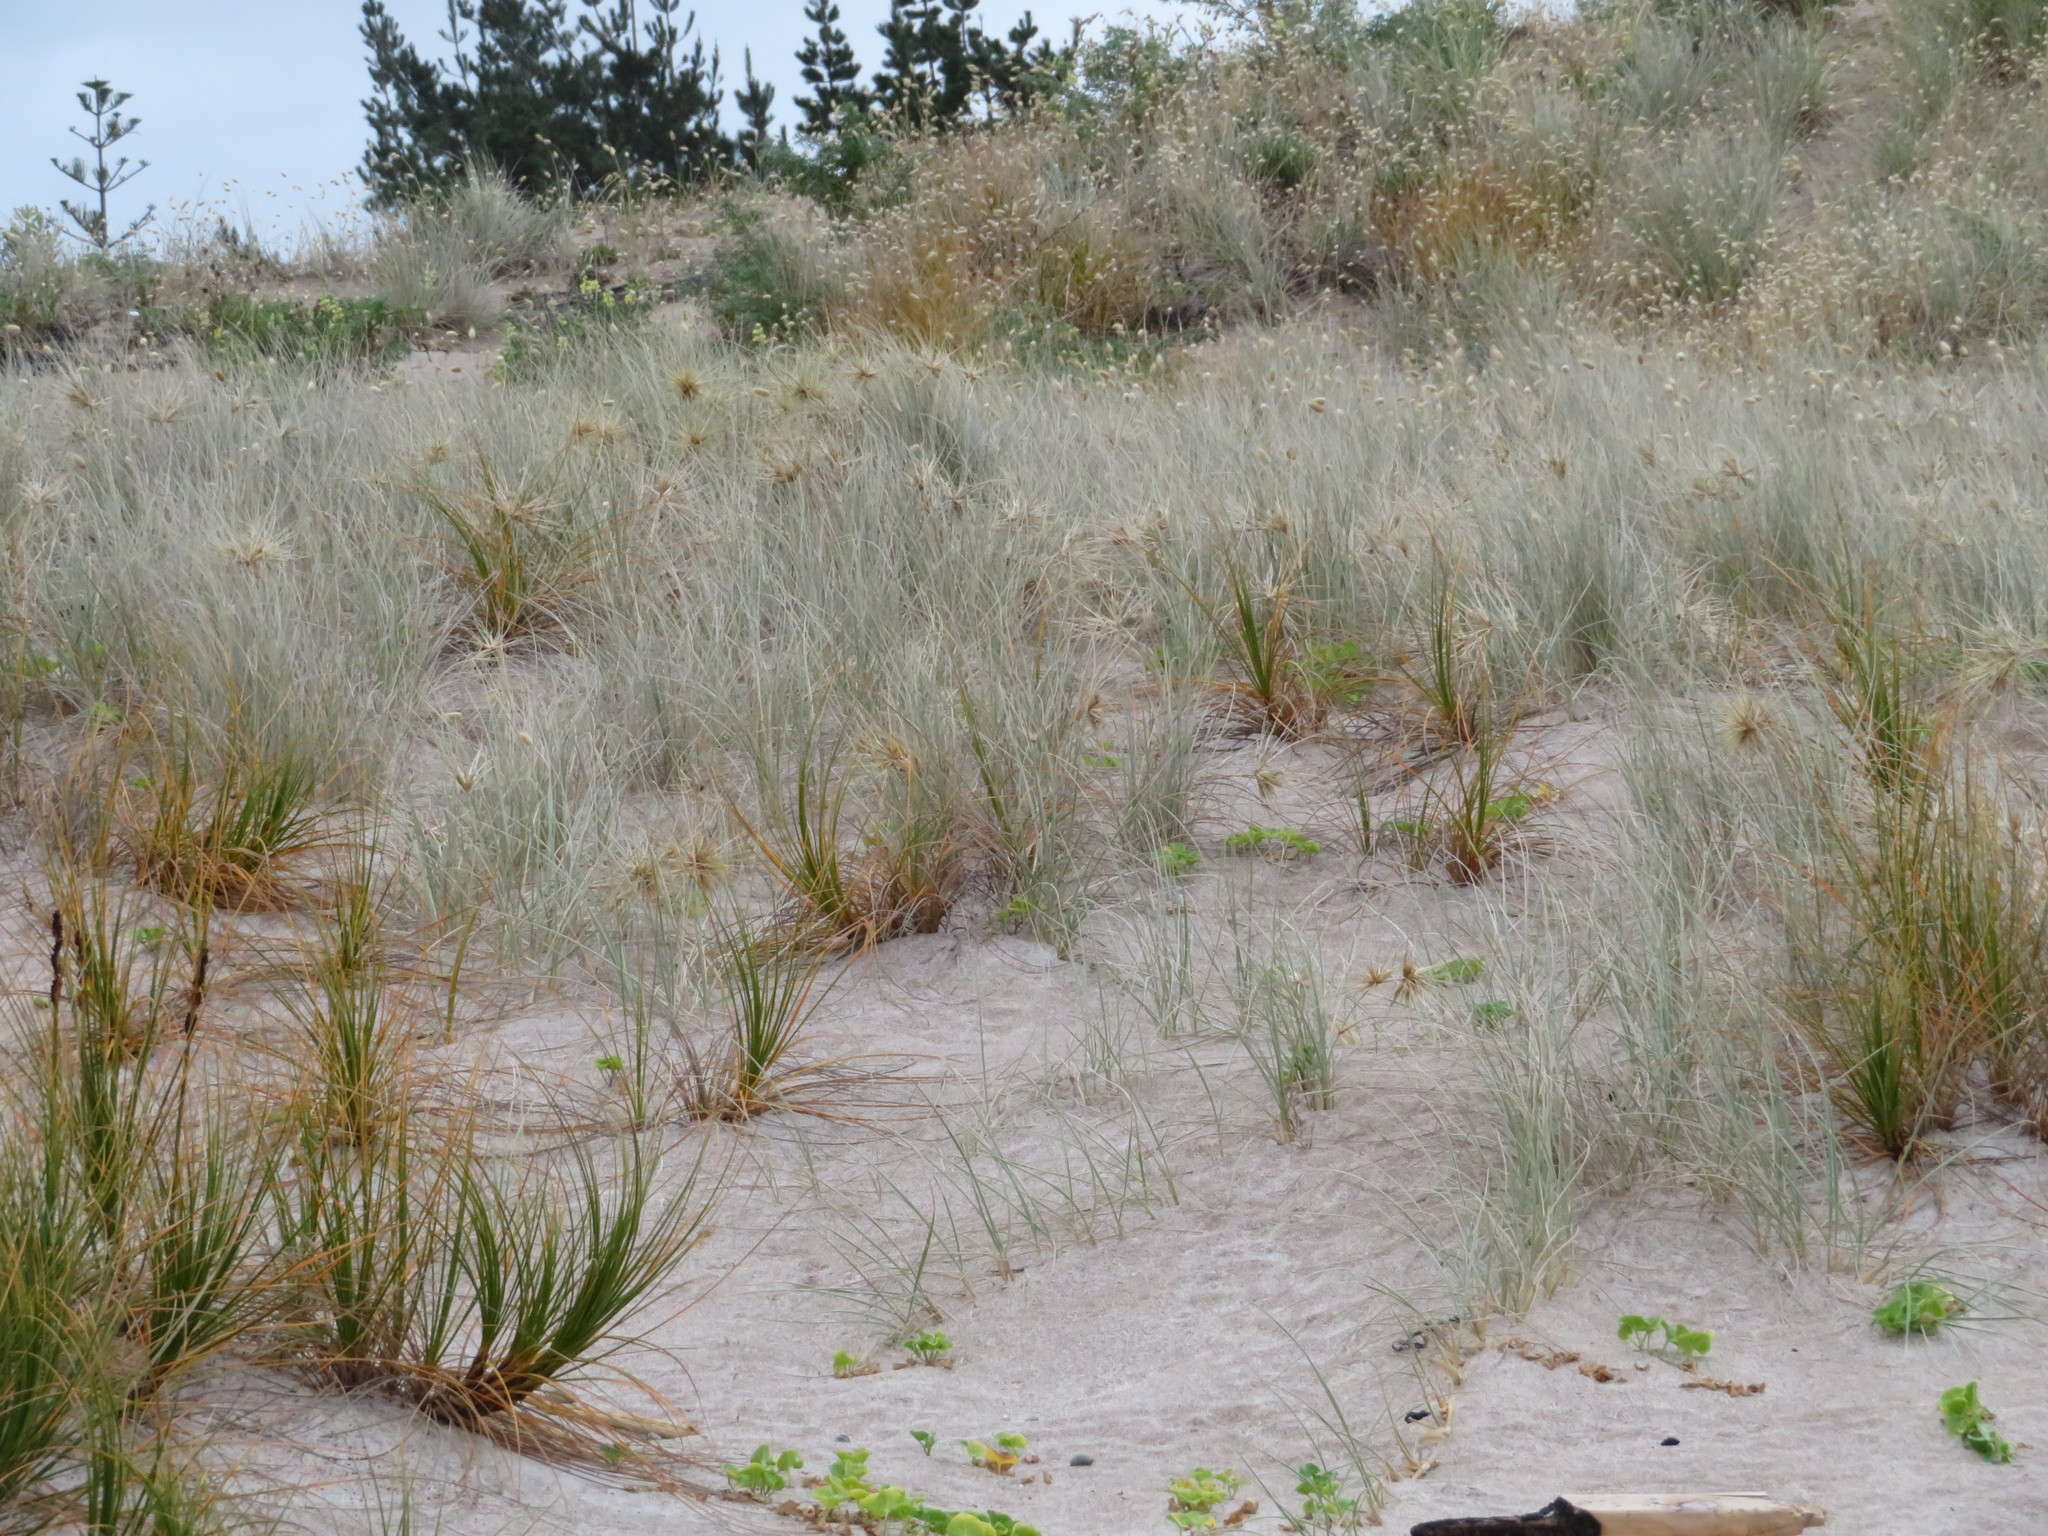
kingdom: Plantae
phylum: Tracheophyta
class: Liliopsida
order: Poales
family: Poaceae
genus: Spinifex
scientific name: Spinifex sericeus
